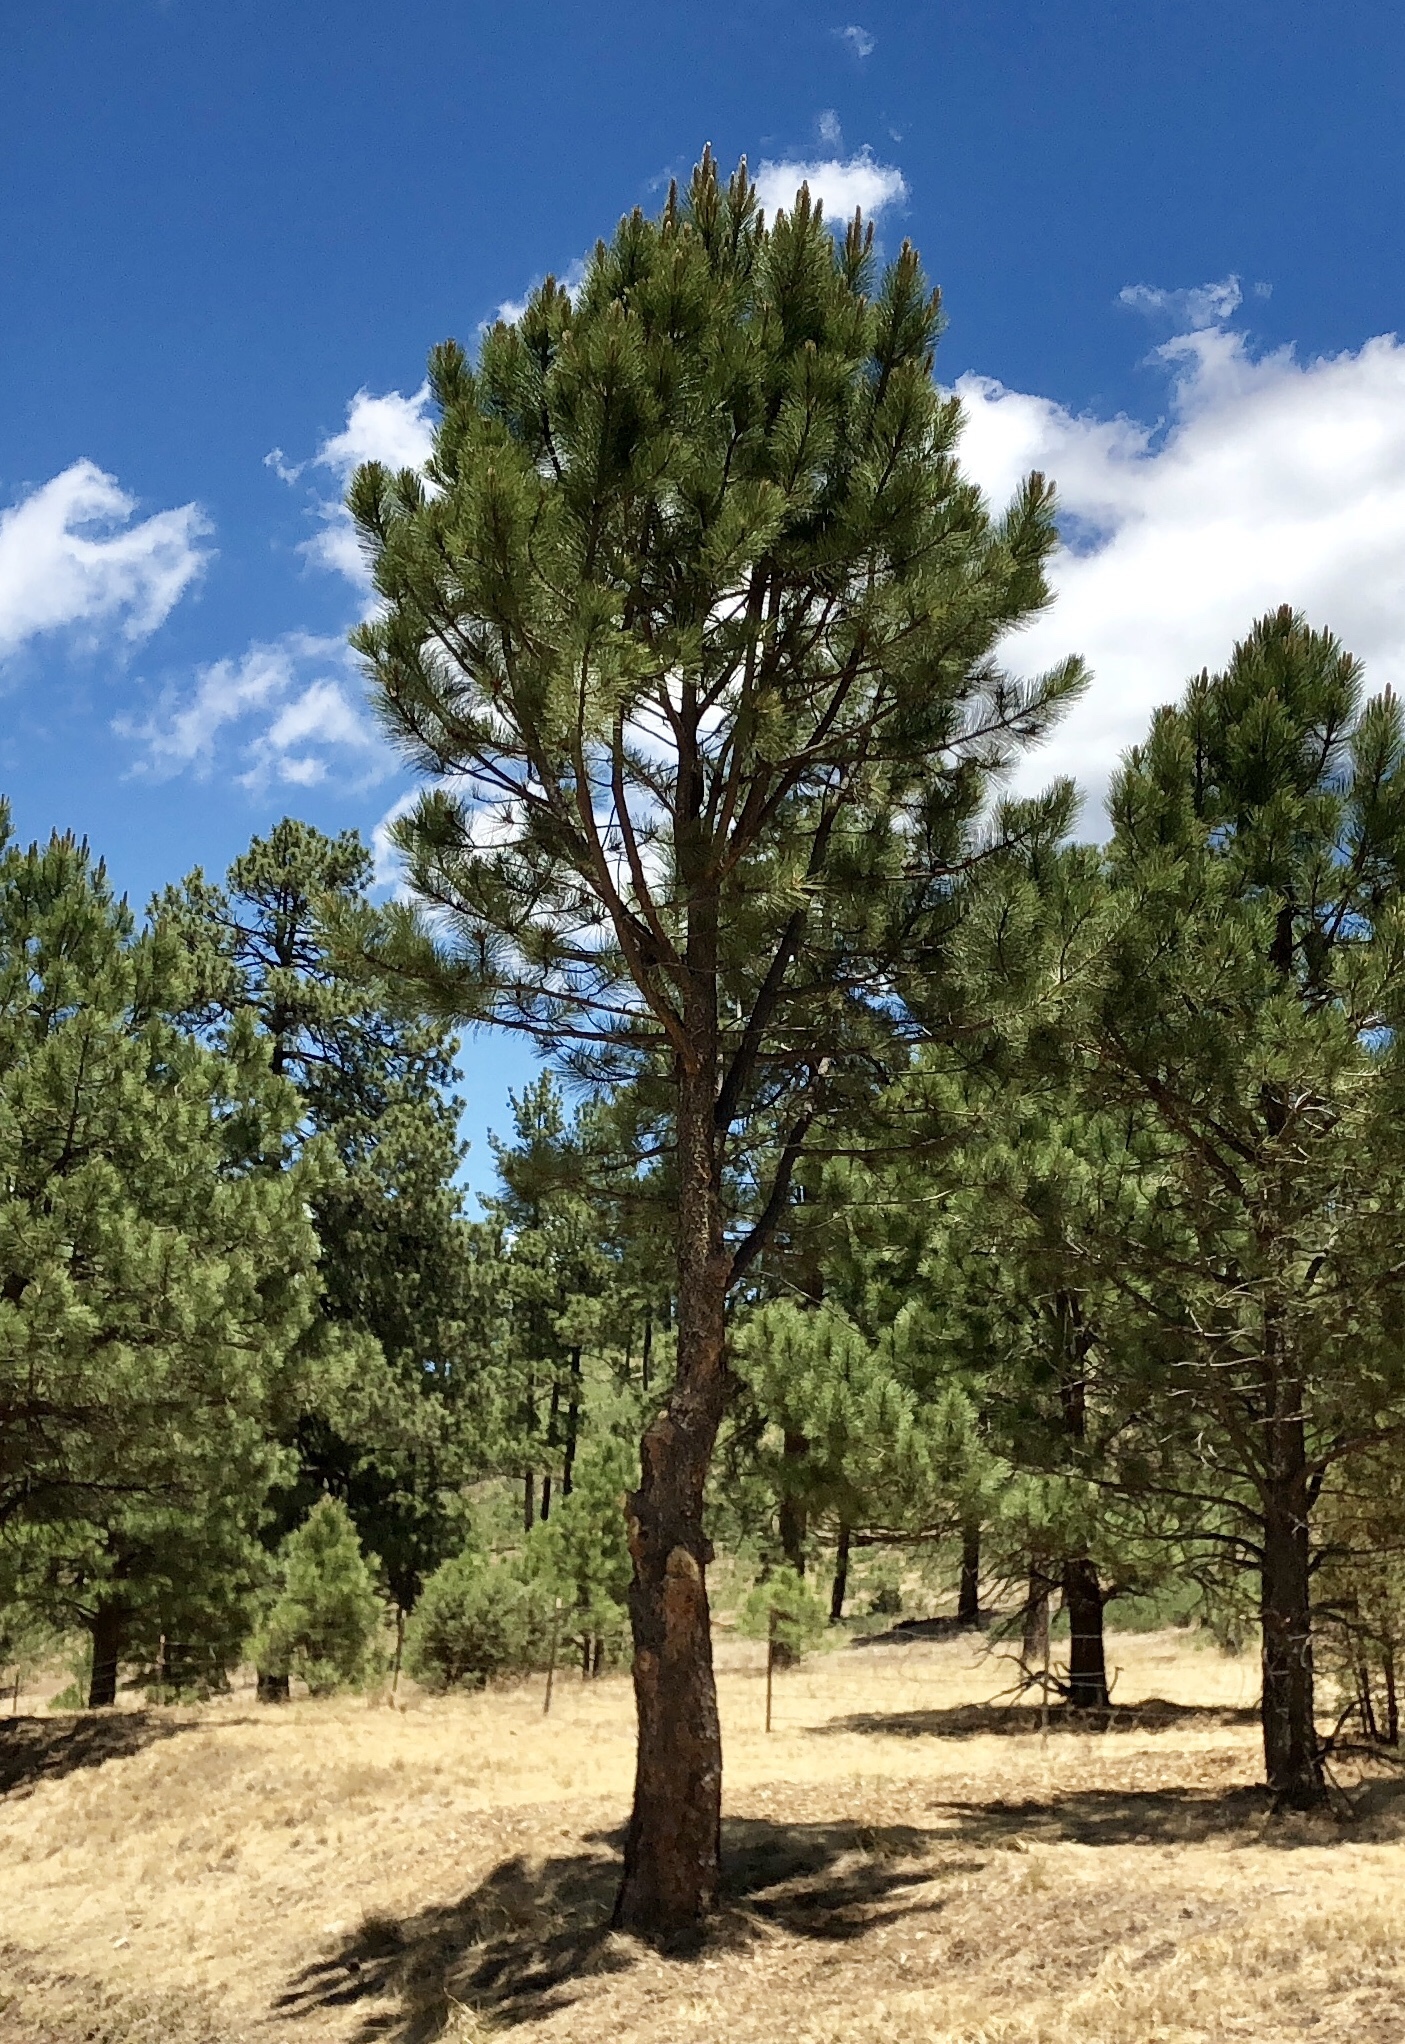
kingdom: Plantae
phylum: Tracheophyta
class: Pinopsida
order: Pinales
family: Pinaceae
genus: Pinus
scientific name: Pinus ponderosa
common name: Western yellow-pine
